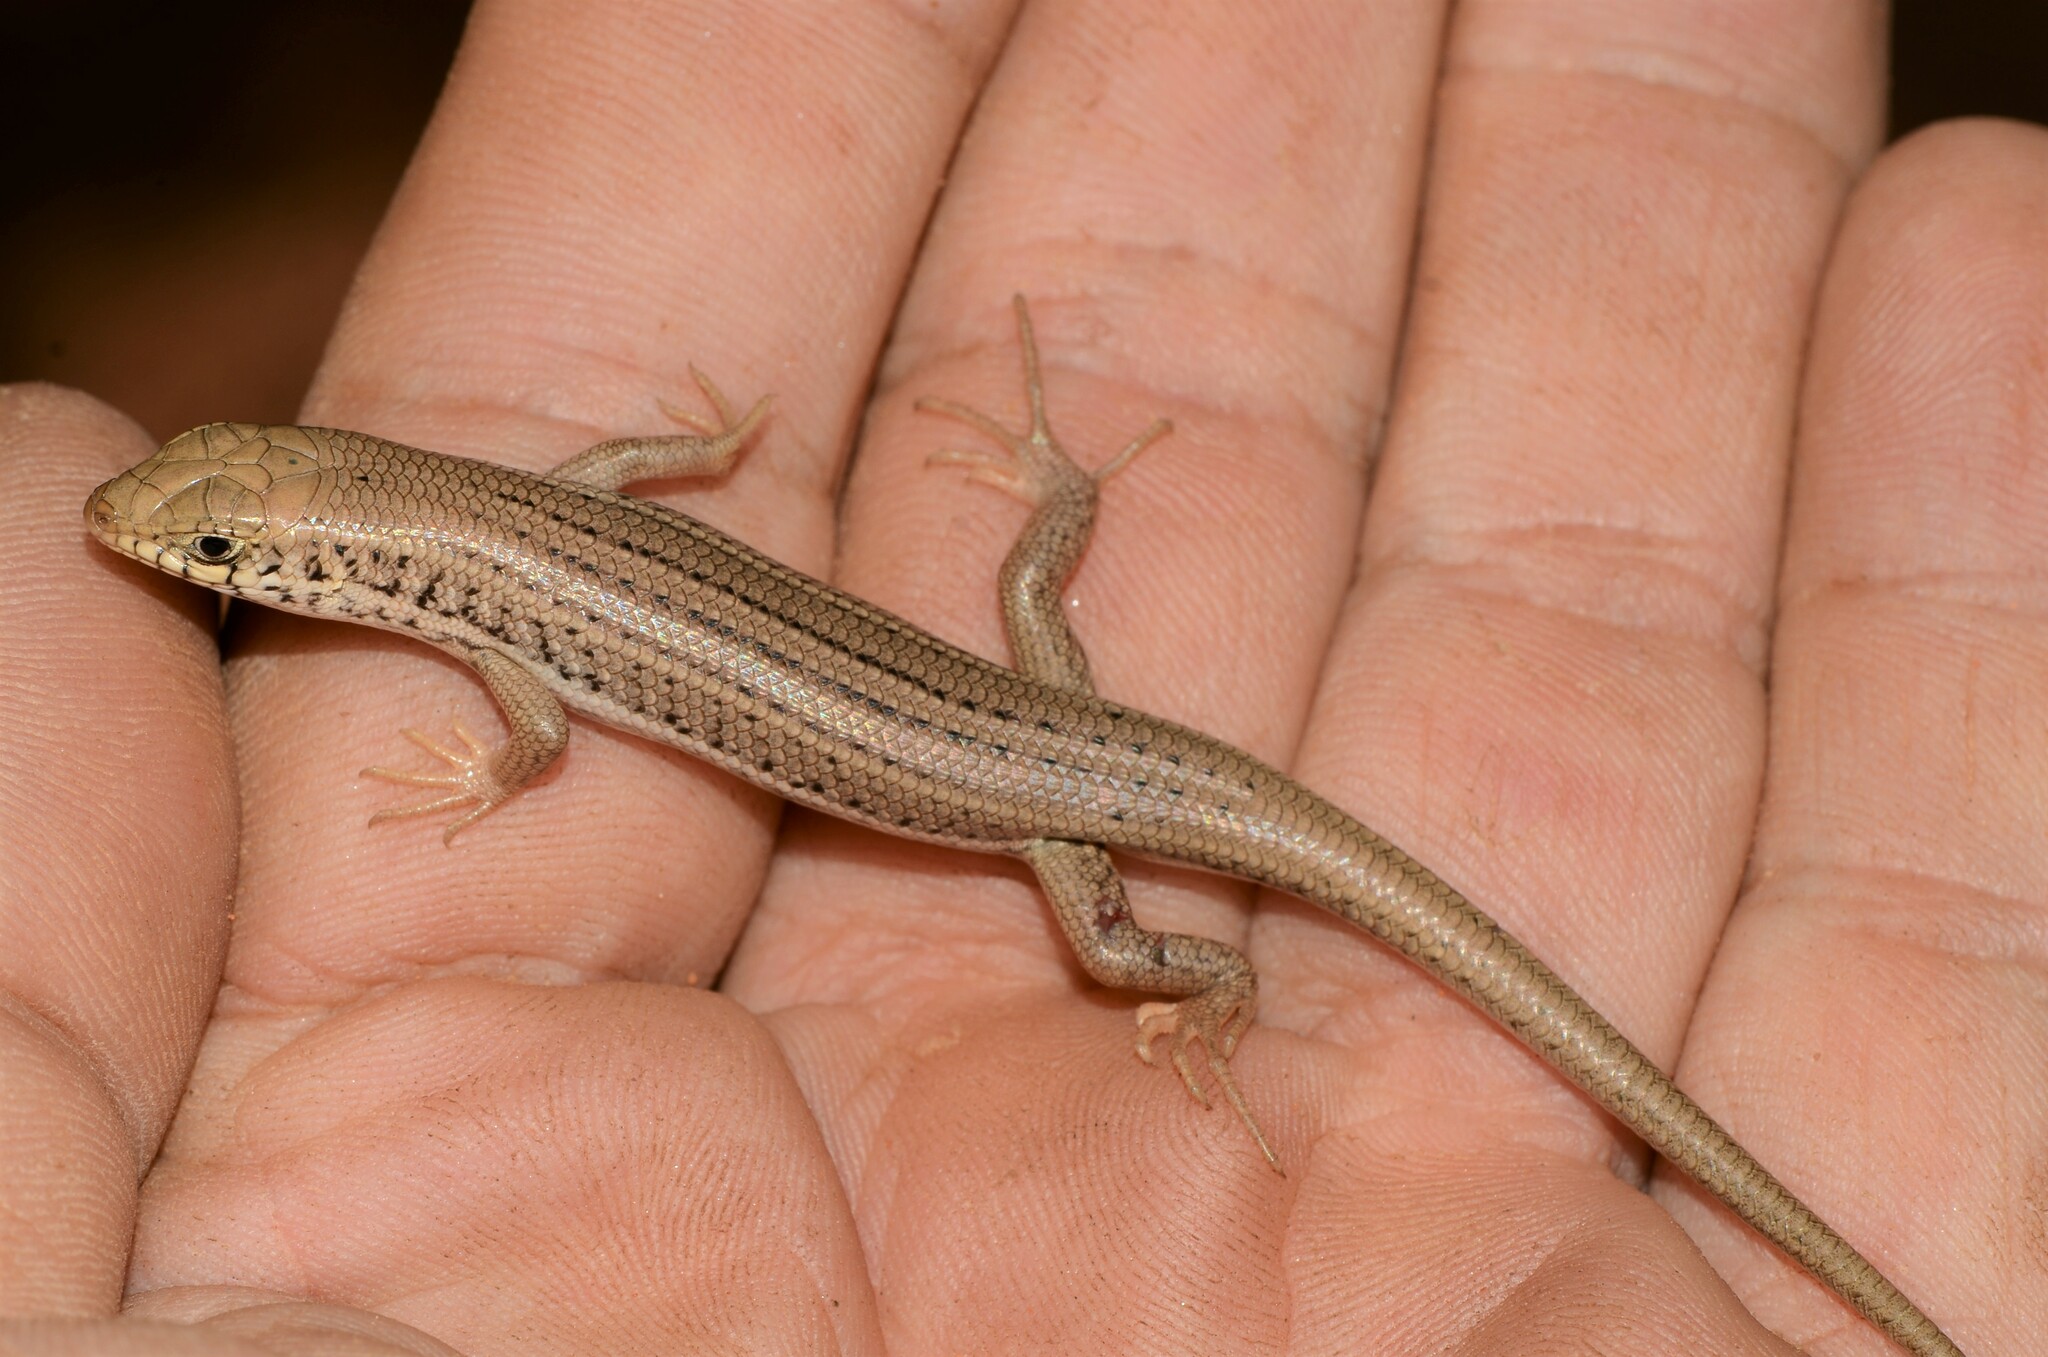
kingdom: Animalia
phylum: Chordata
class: Squamata
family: Scincidae
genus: Trachylepis
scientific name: Trachylepis occidentalis
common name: Western three-striped skink
